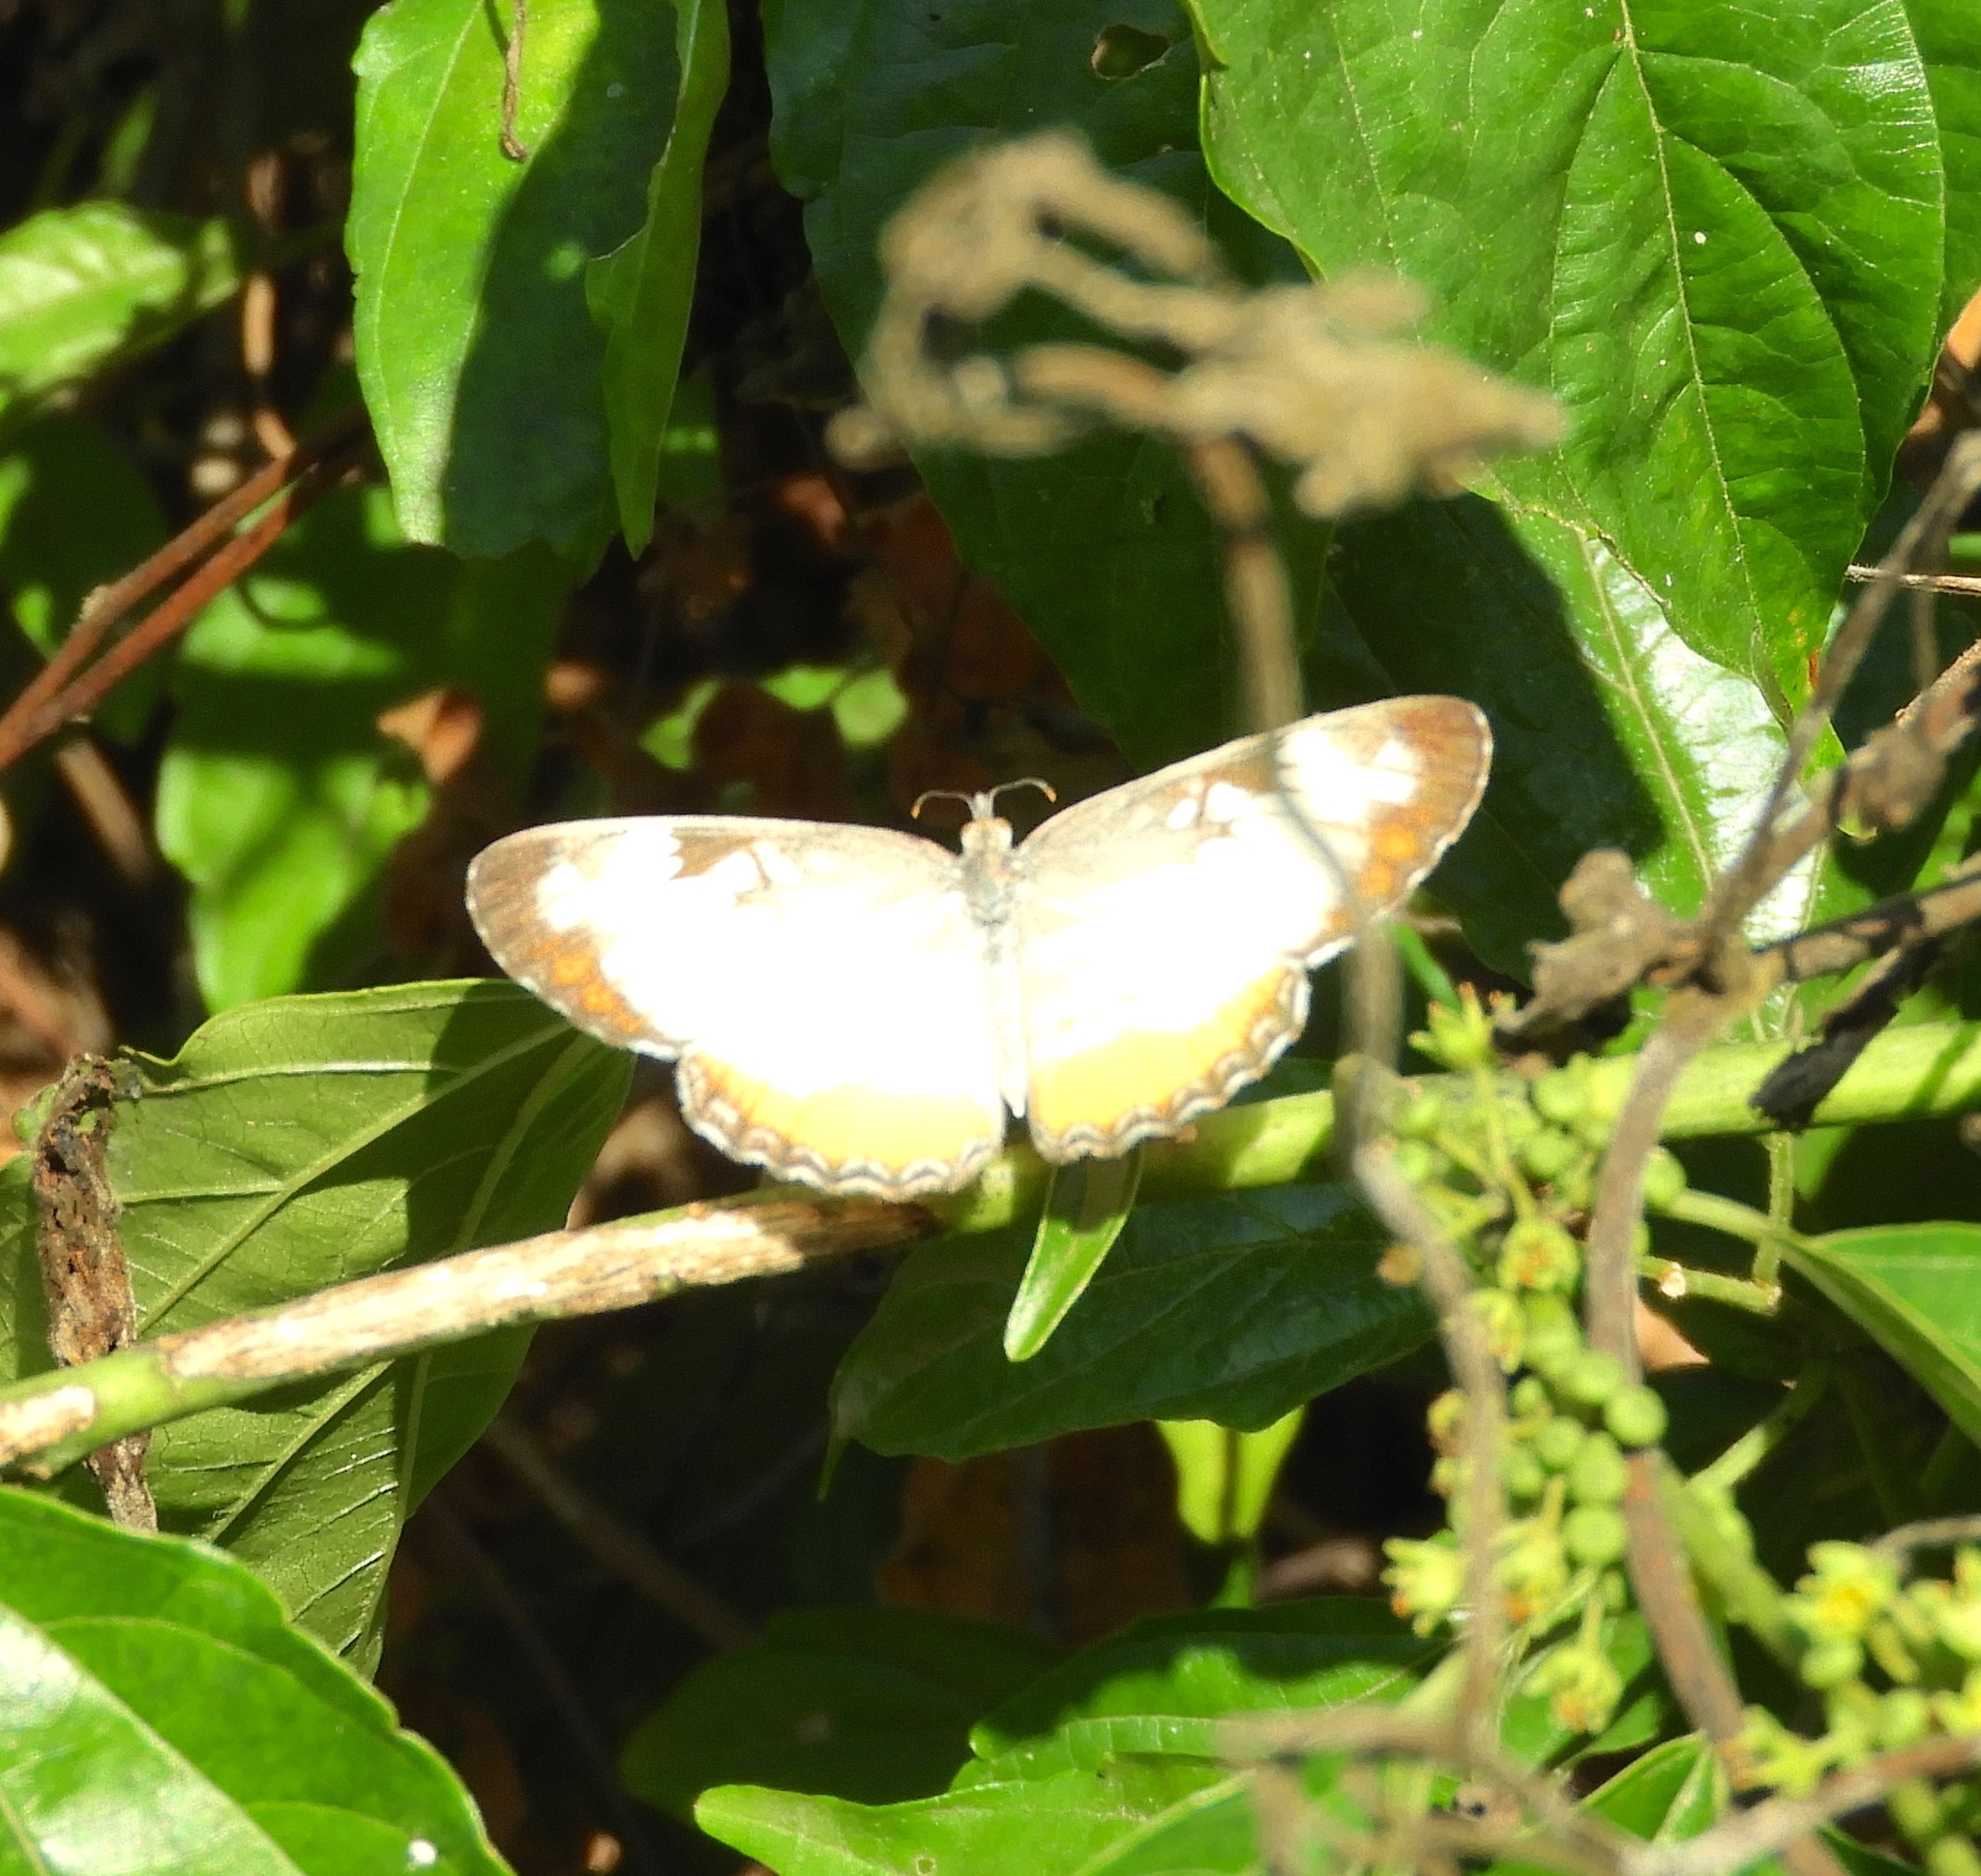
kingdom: Animalia
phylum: Arthropoda
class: Insecta
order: Lepidoptera
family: Nymphalidae
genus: Mestra
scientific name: Mestra amymone
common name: Common mestra
